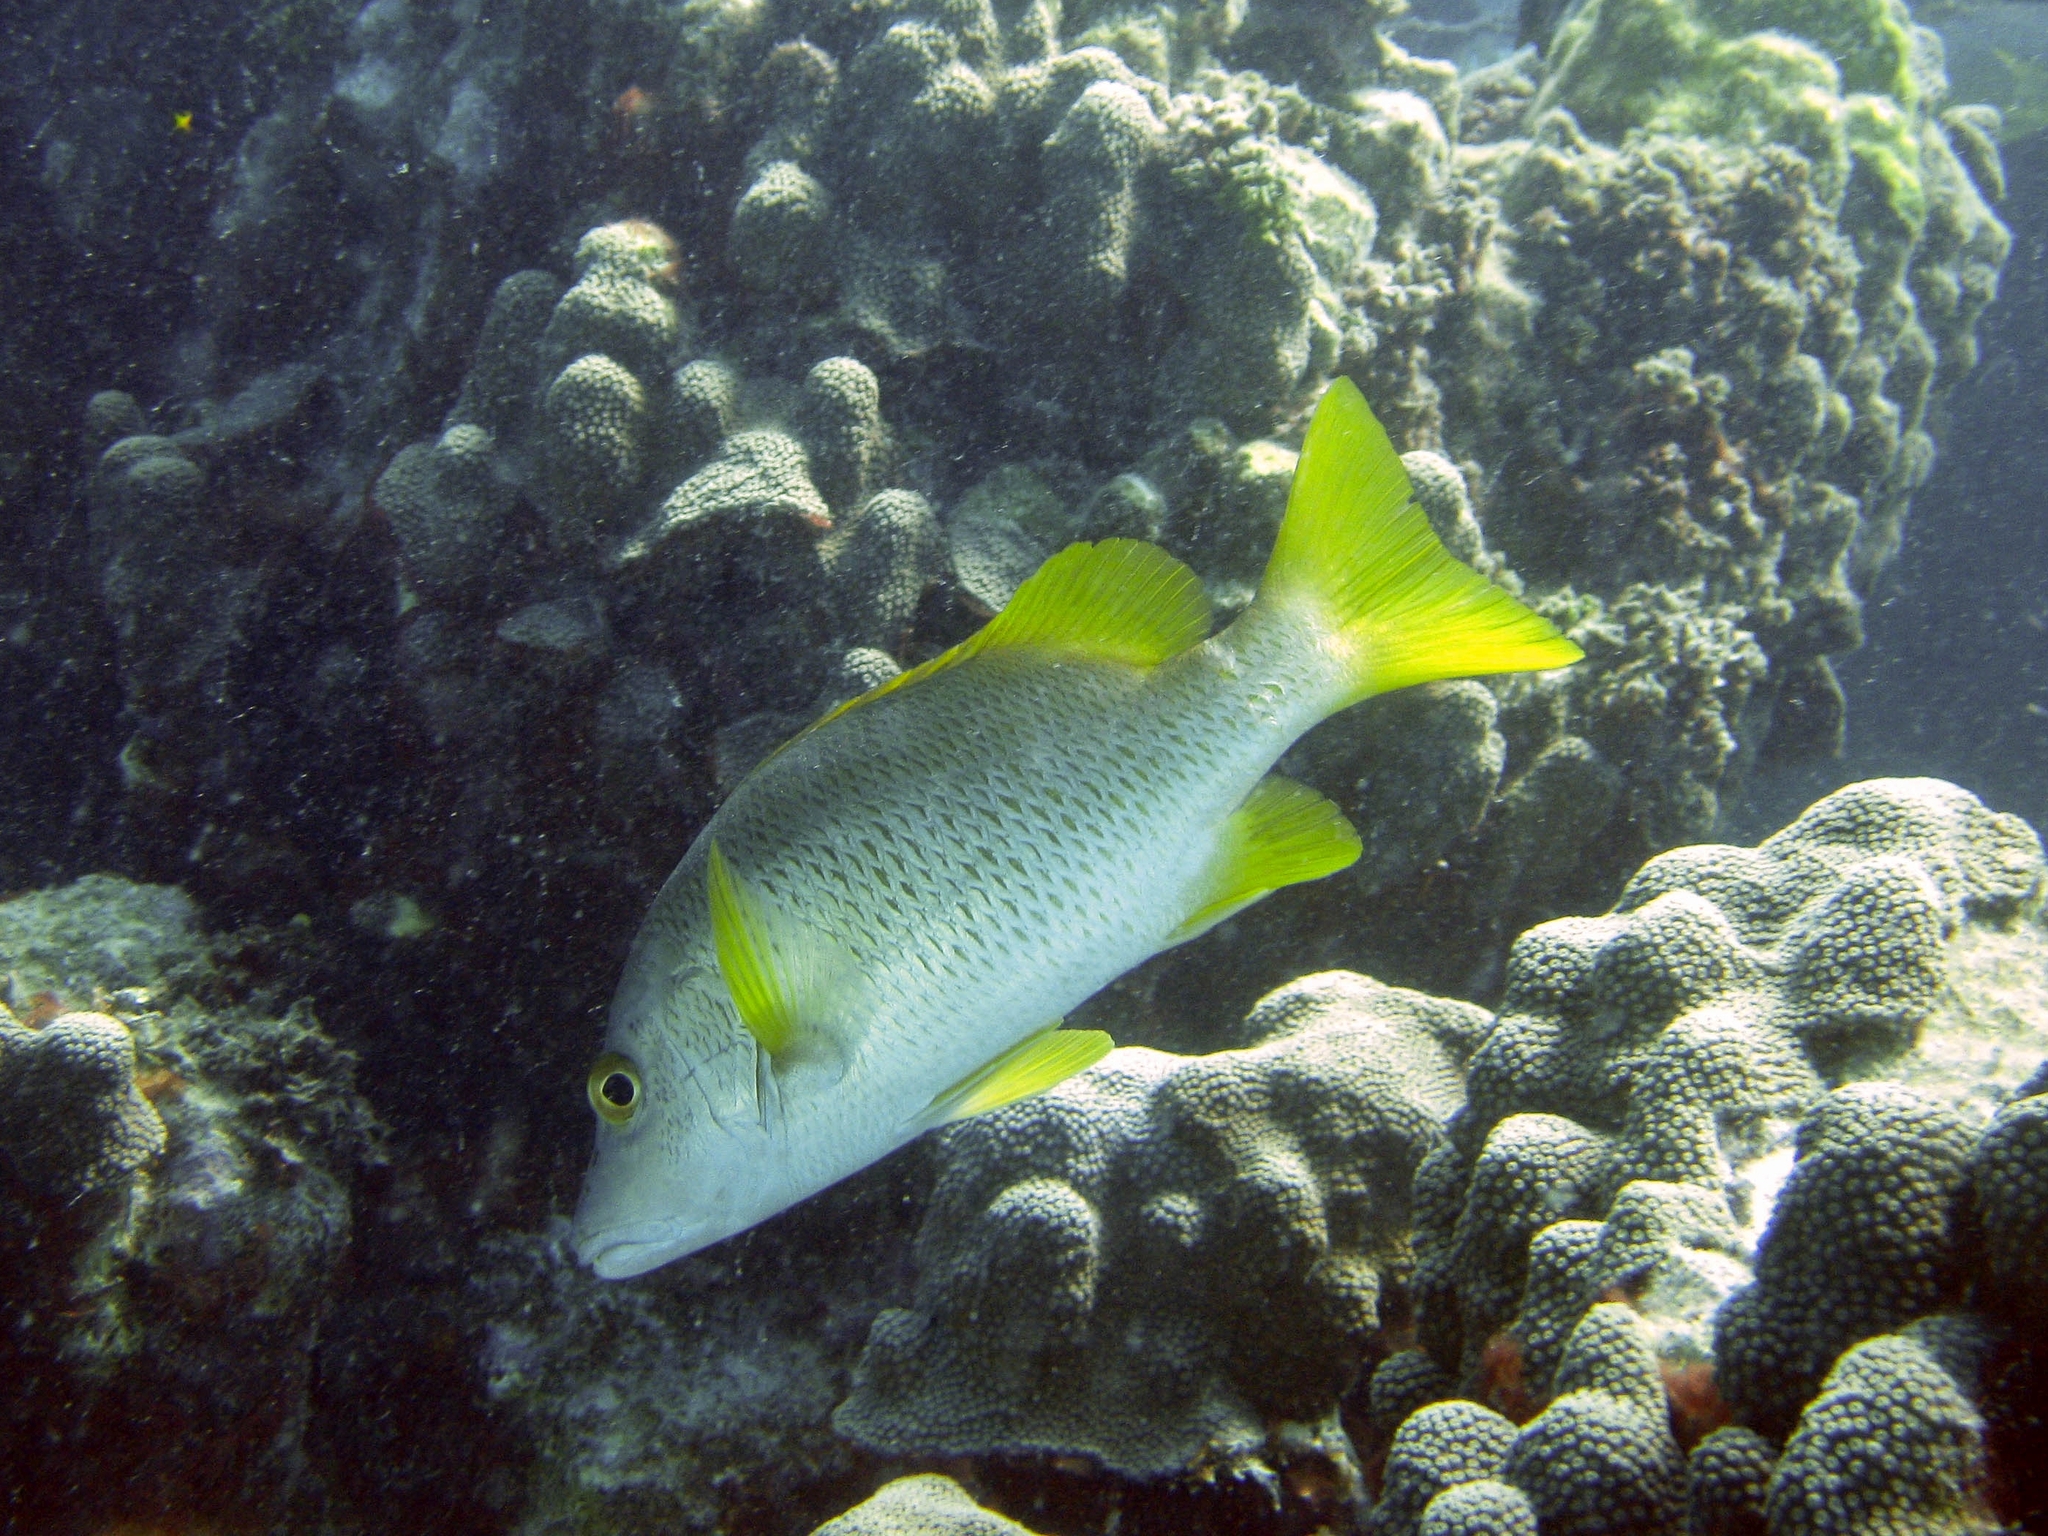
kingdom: Animalia
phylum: Chordata
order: Perciformes
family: Lutjanidae
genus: Lutjanus
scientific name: Lutjanus apodus
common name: Schoolmaster
